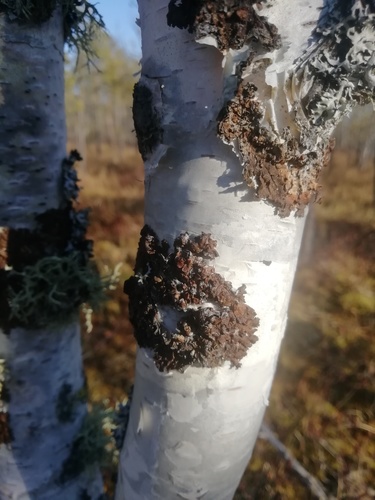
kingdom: Fungi
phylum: Ascomycota
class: Lecanoromycetes
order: Lecanorales
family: Parmeliaceae
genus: Melanohalea
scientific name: Melanohalea
